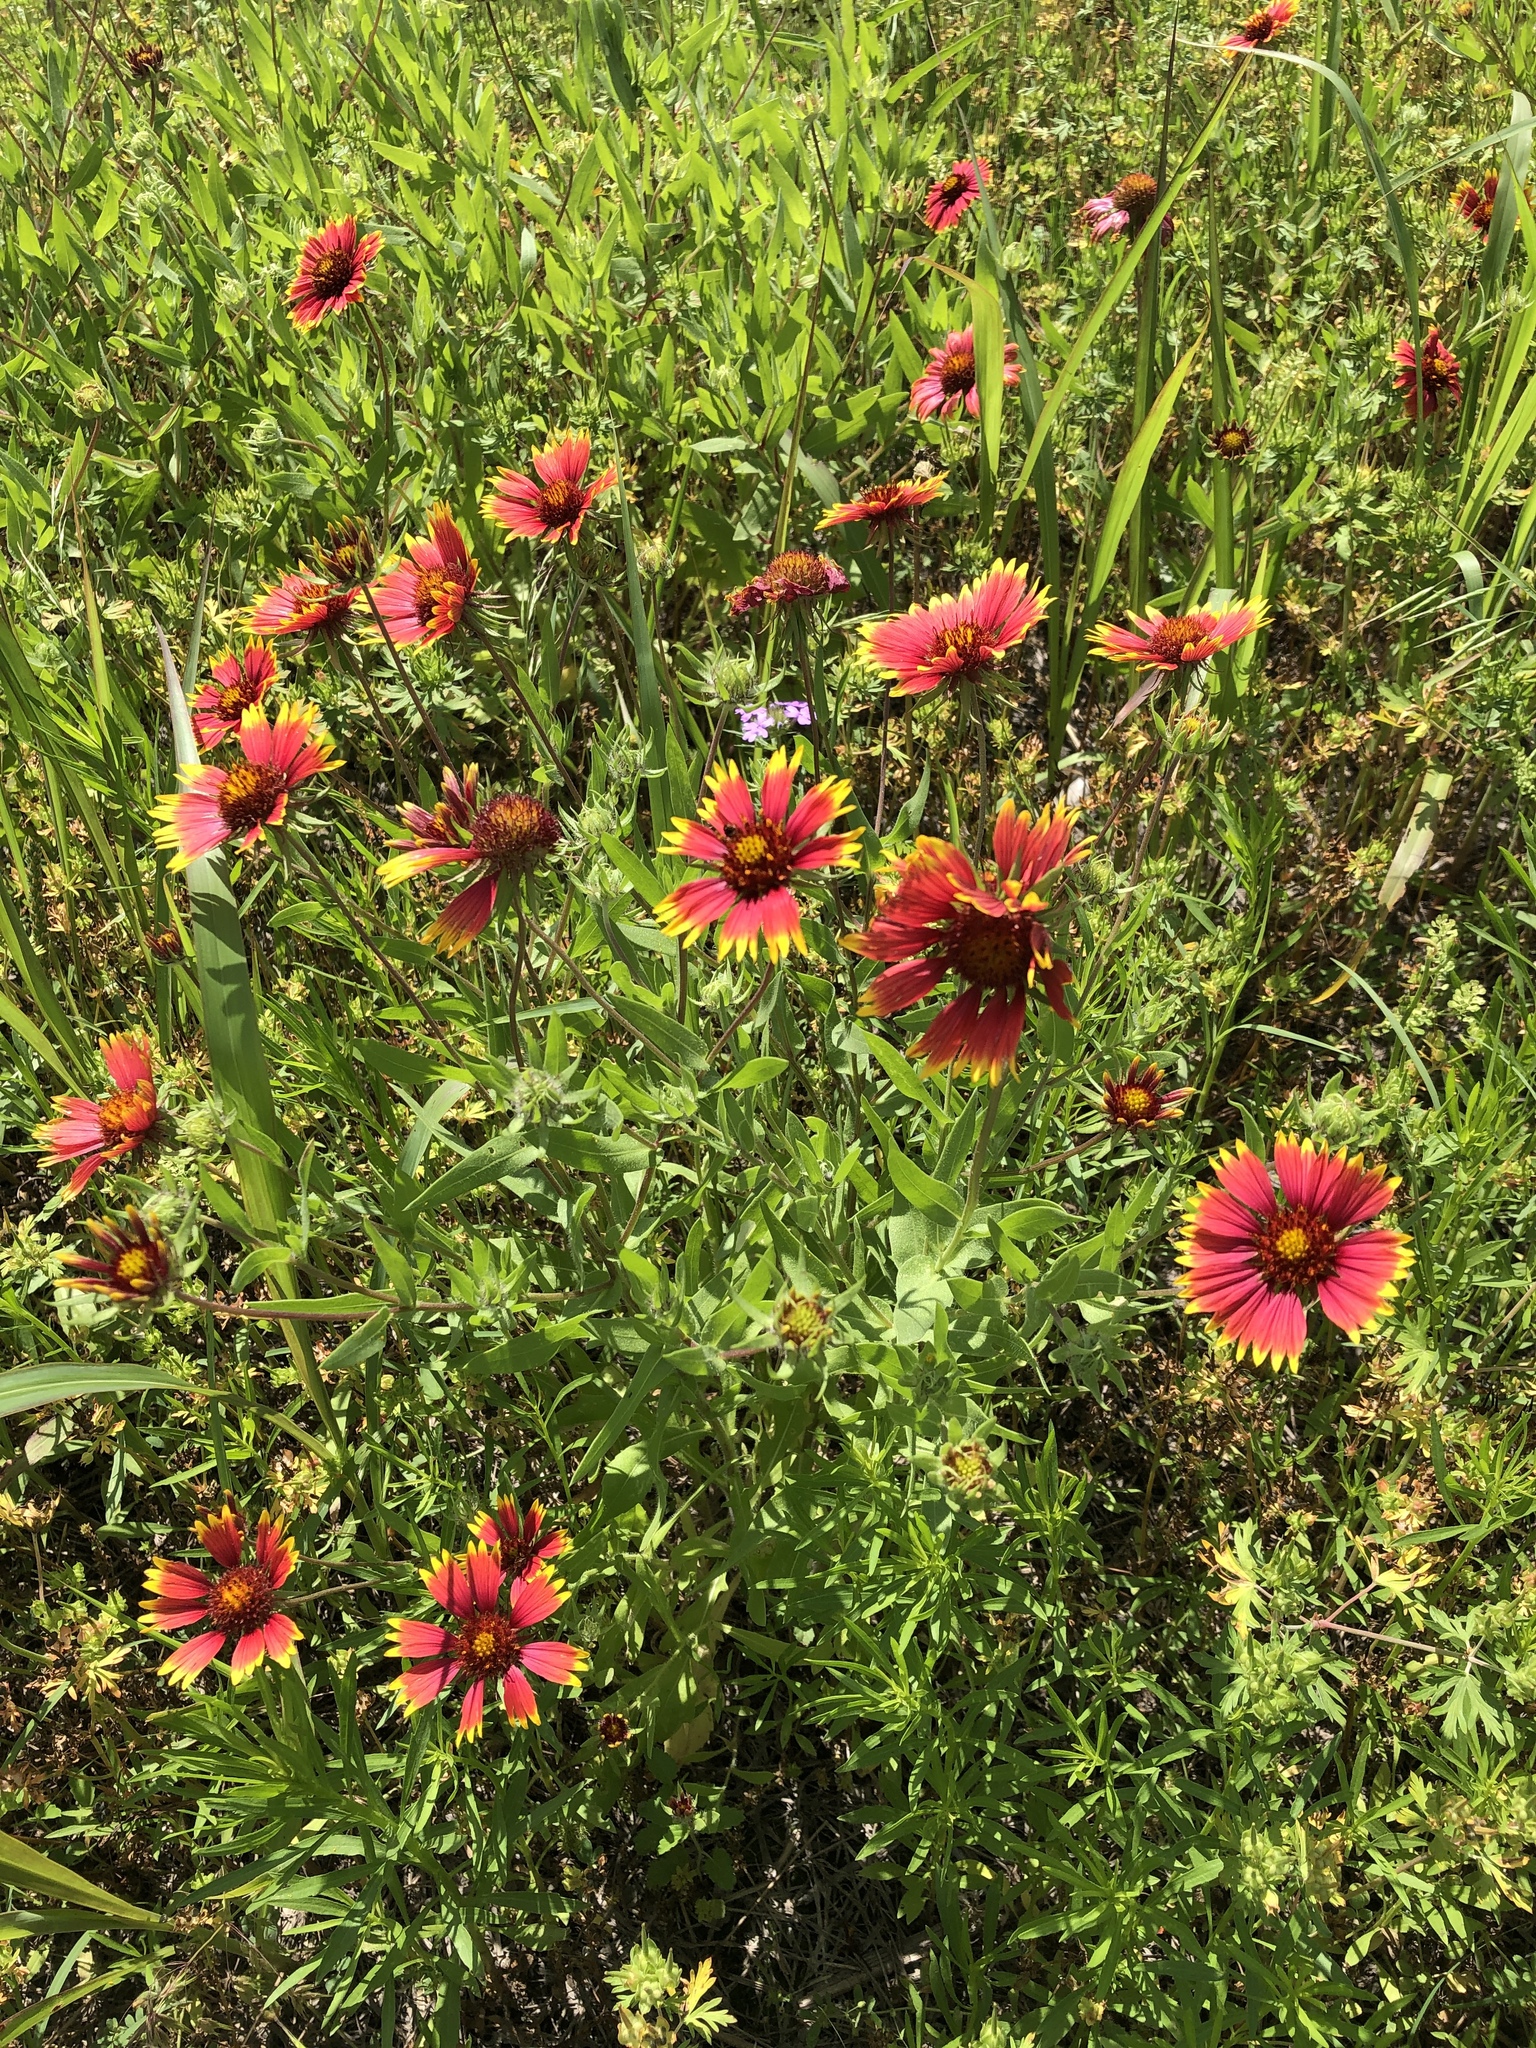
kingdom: Plantae
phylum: Tracheophyta
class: Magnoliopsida
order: Asterales
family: Asteraceae
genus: Gaillardia
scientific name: Gaillardia pulchella
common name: Firewheel
